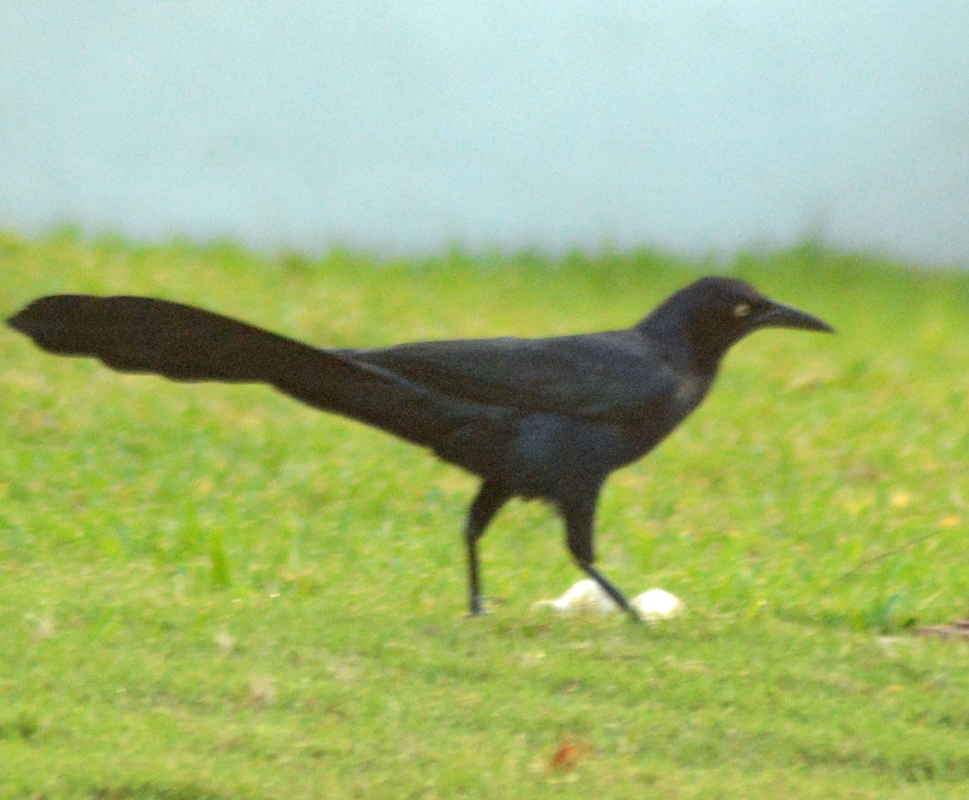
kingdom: Animalia
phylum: Chordata
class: Aves
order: Passeriformes
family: Icteridae
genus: Quiscalus
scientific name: Quiscalus mexicanus
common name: Great-tailed grackle
